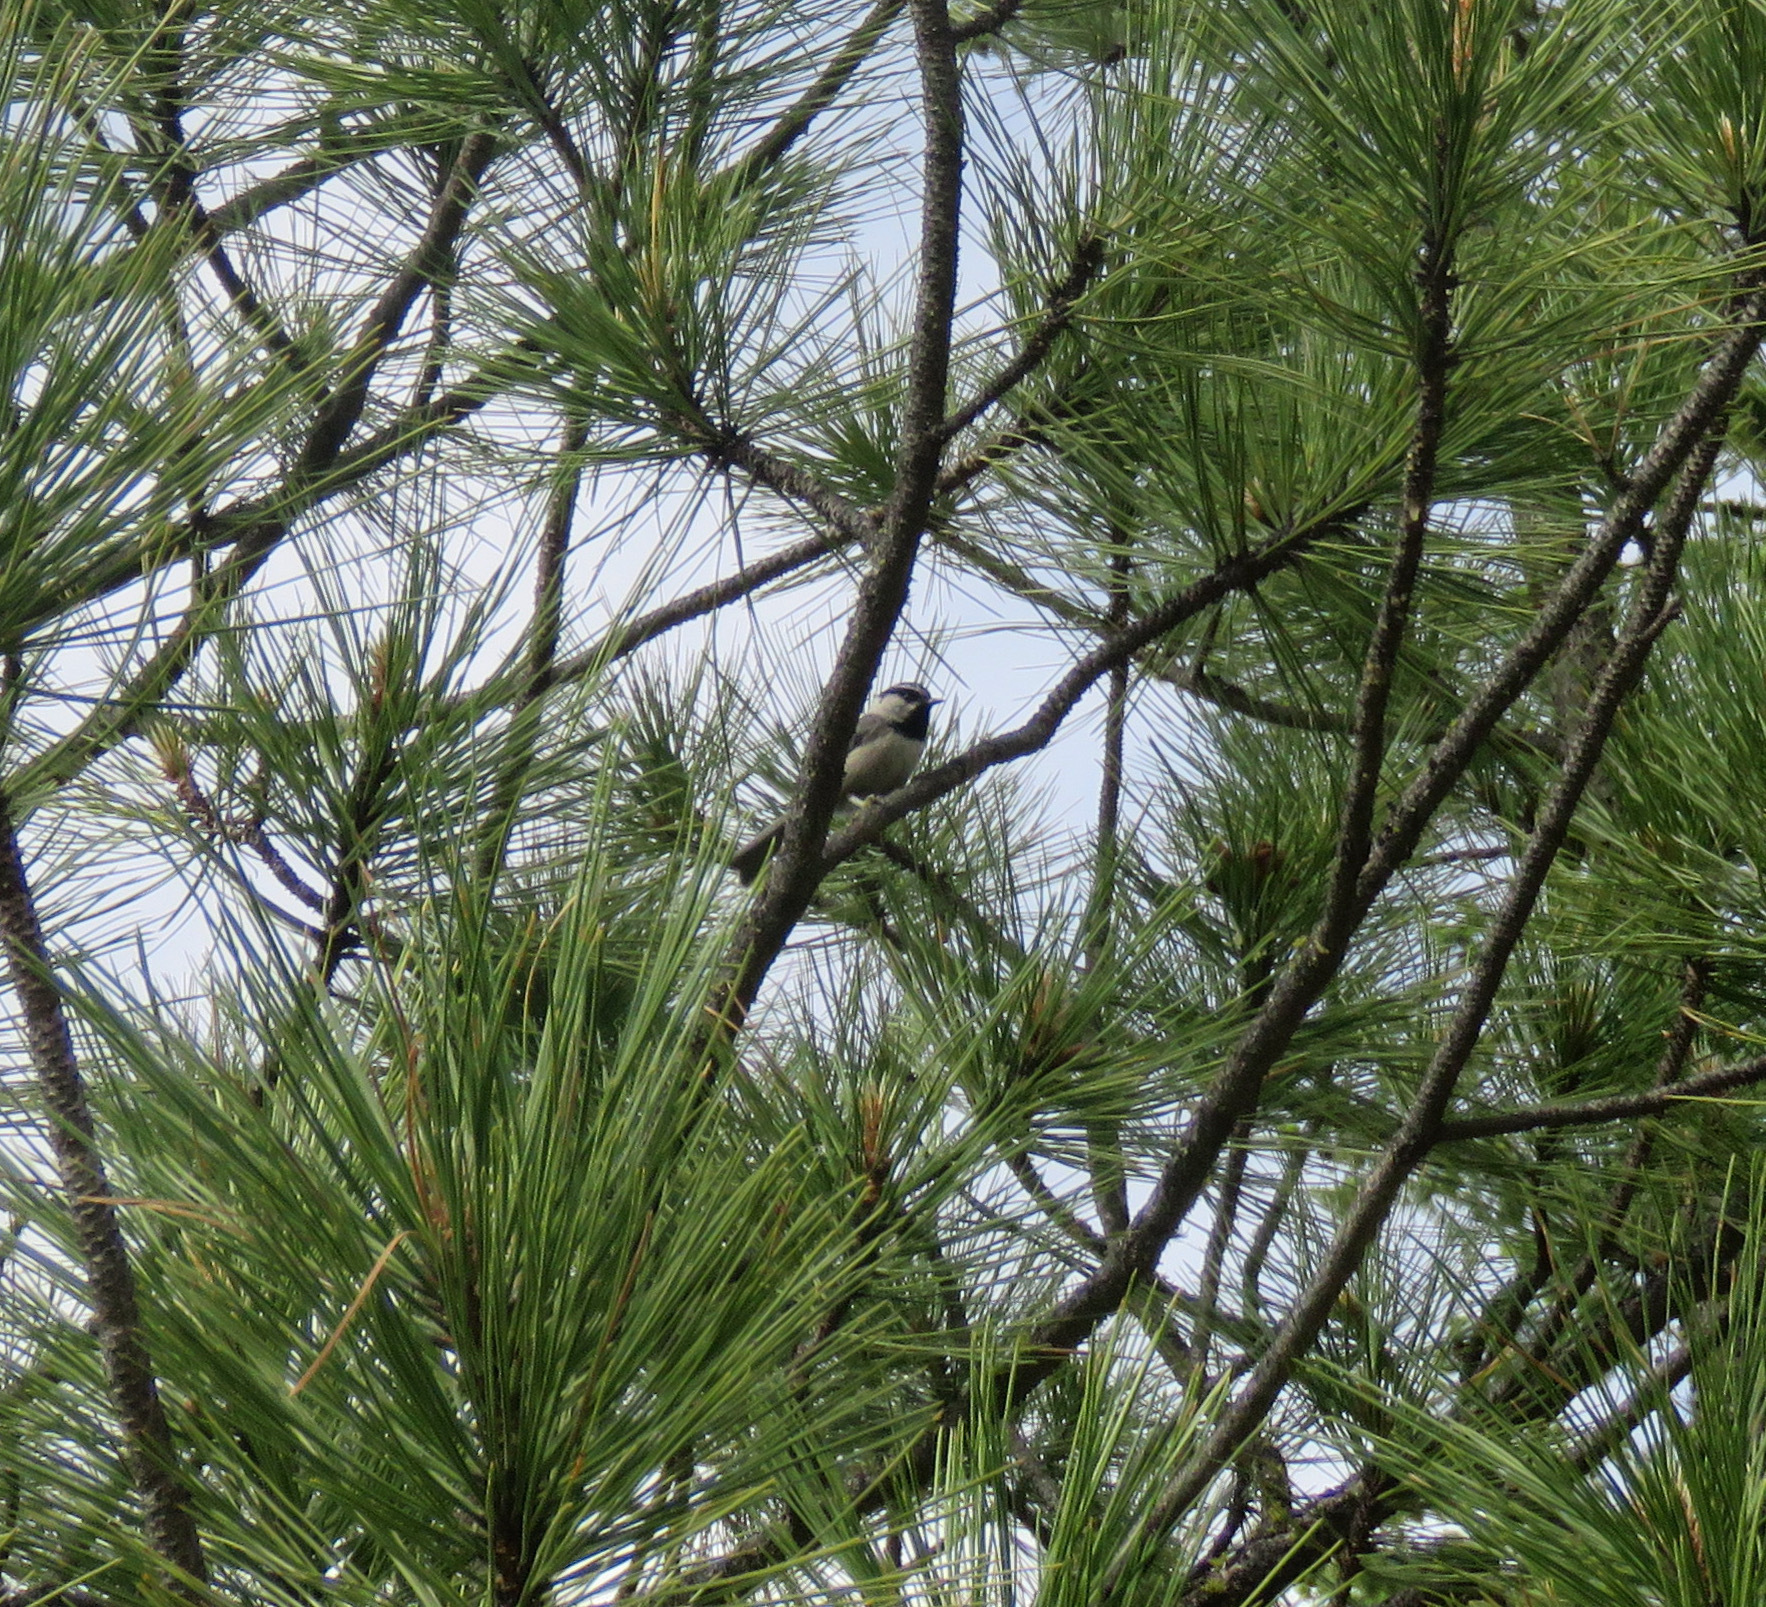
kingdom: Animalia
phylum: Chordata
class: Aves
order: Passeriformes
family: Paridae
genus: Poecile
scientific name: Poecile gambeli
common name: Mountain chickadee
